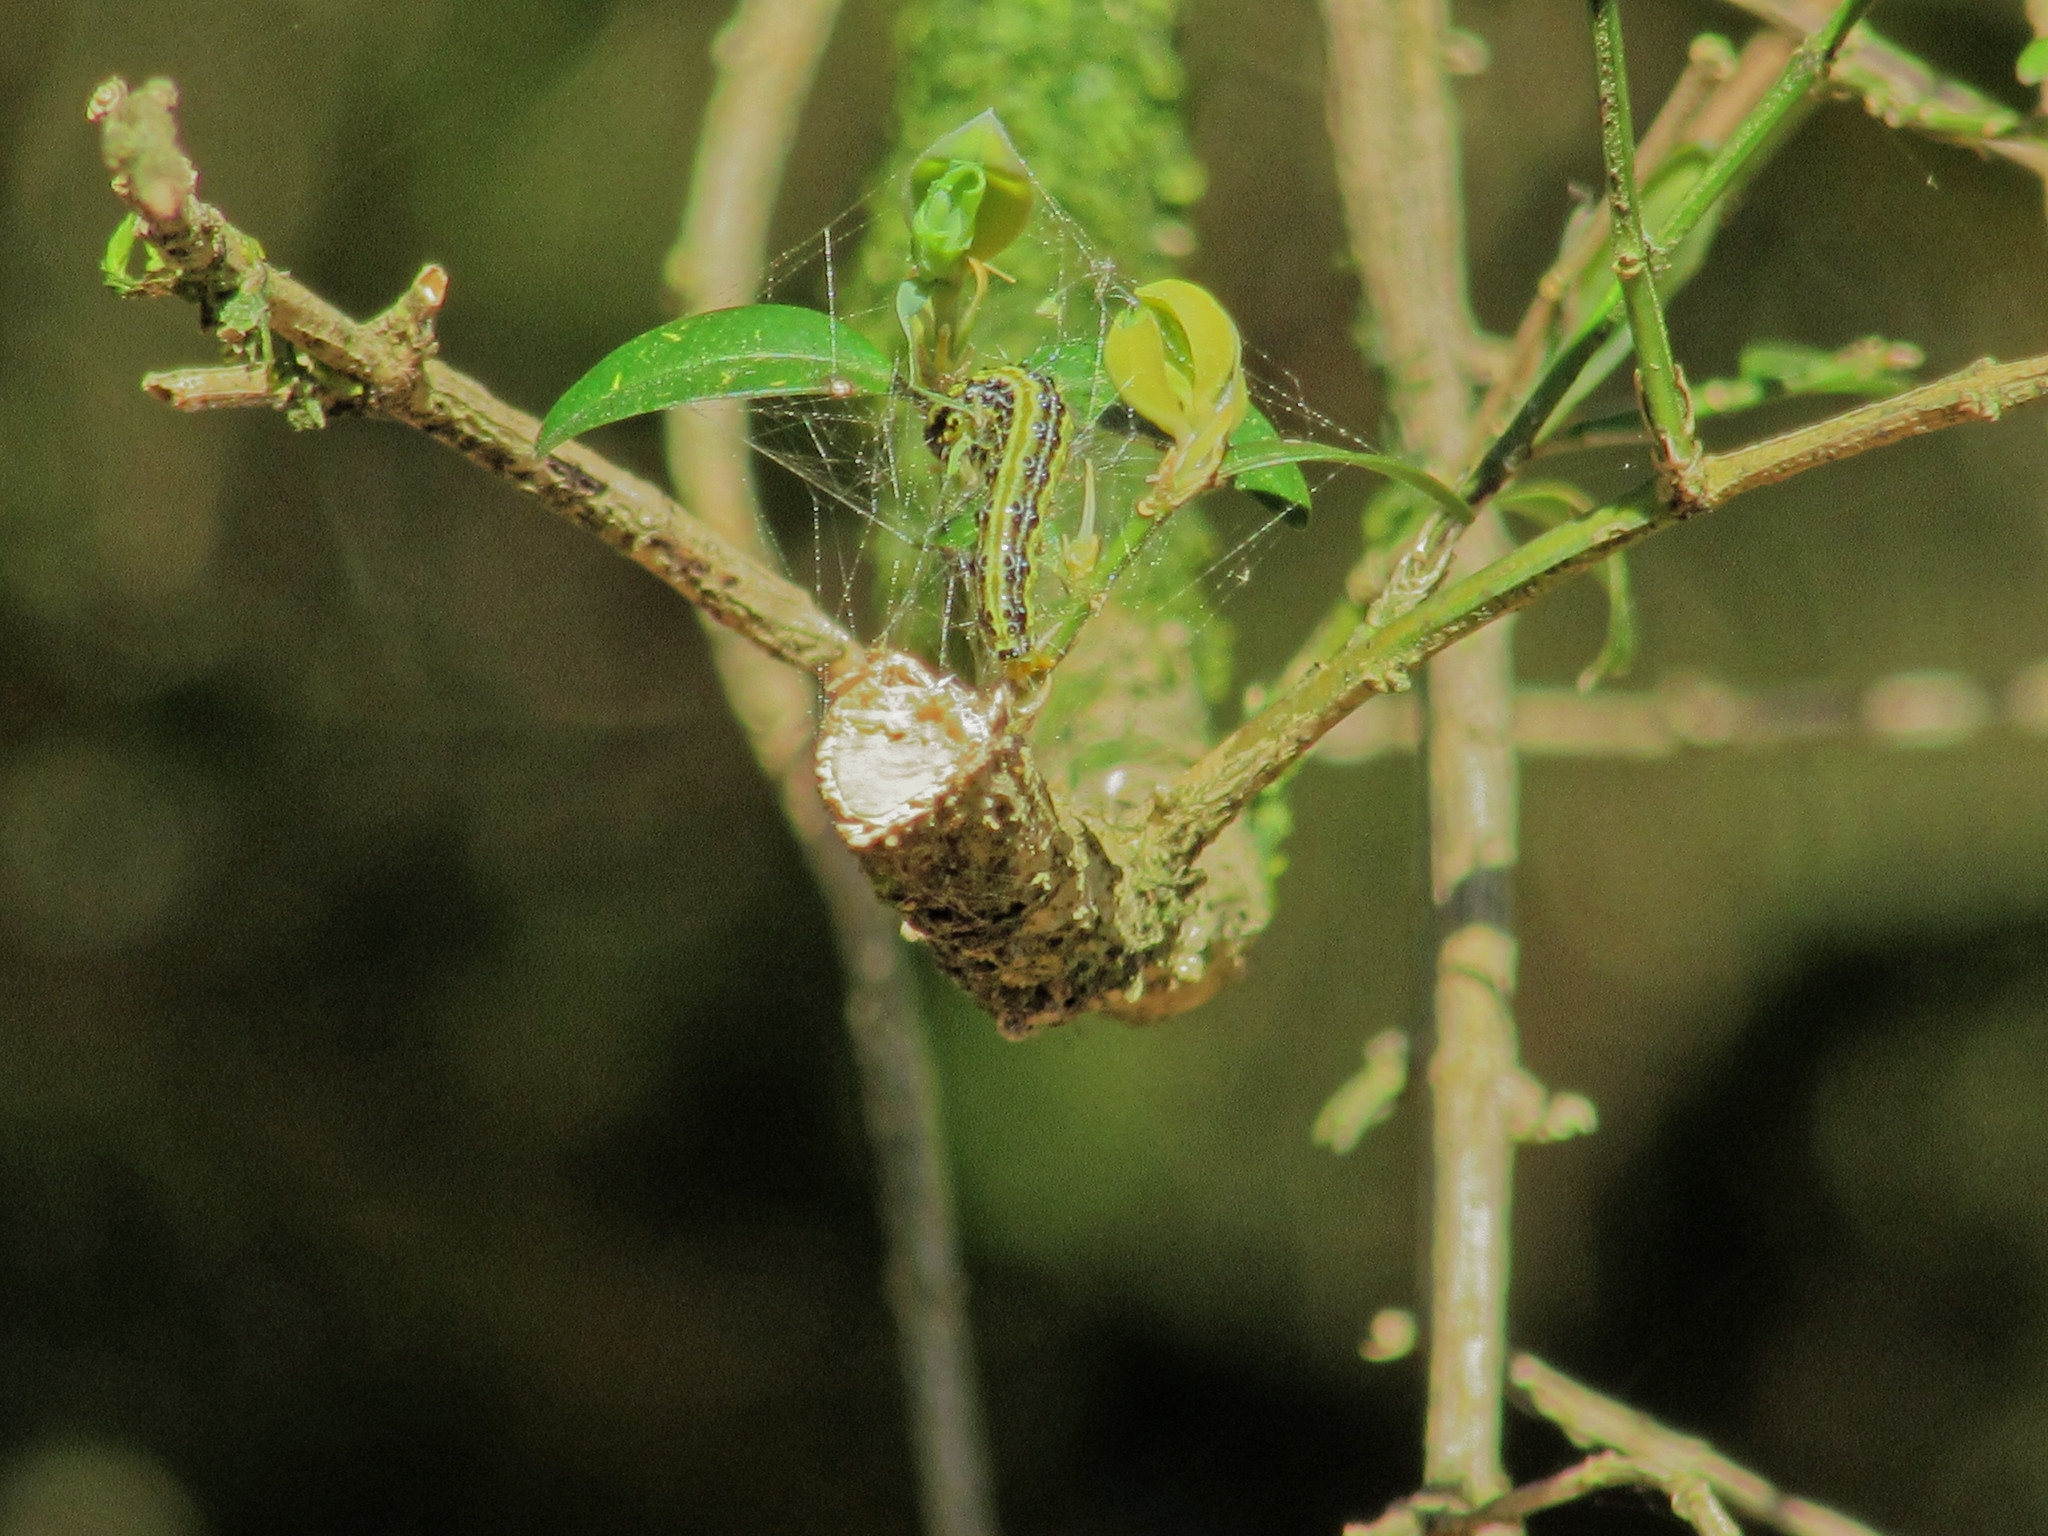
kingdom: Animalia
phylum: Arthropoda
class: Insecta
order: Lepidoptera
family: Crambidae
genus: Cydalima
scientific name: Cydalima perspectalis
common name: Box tree moth
